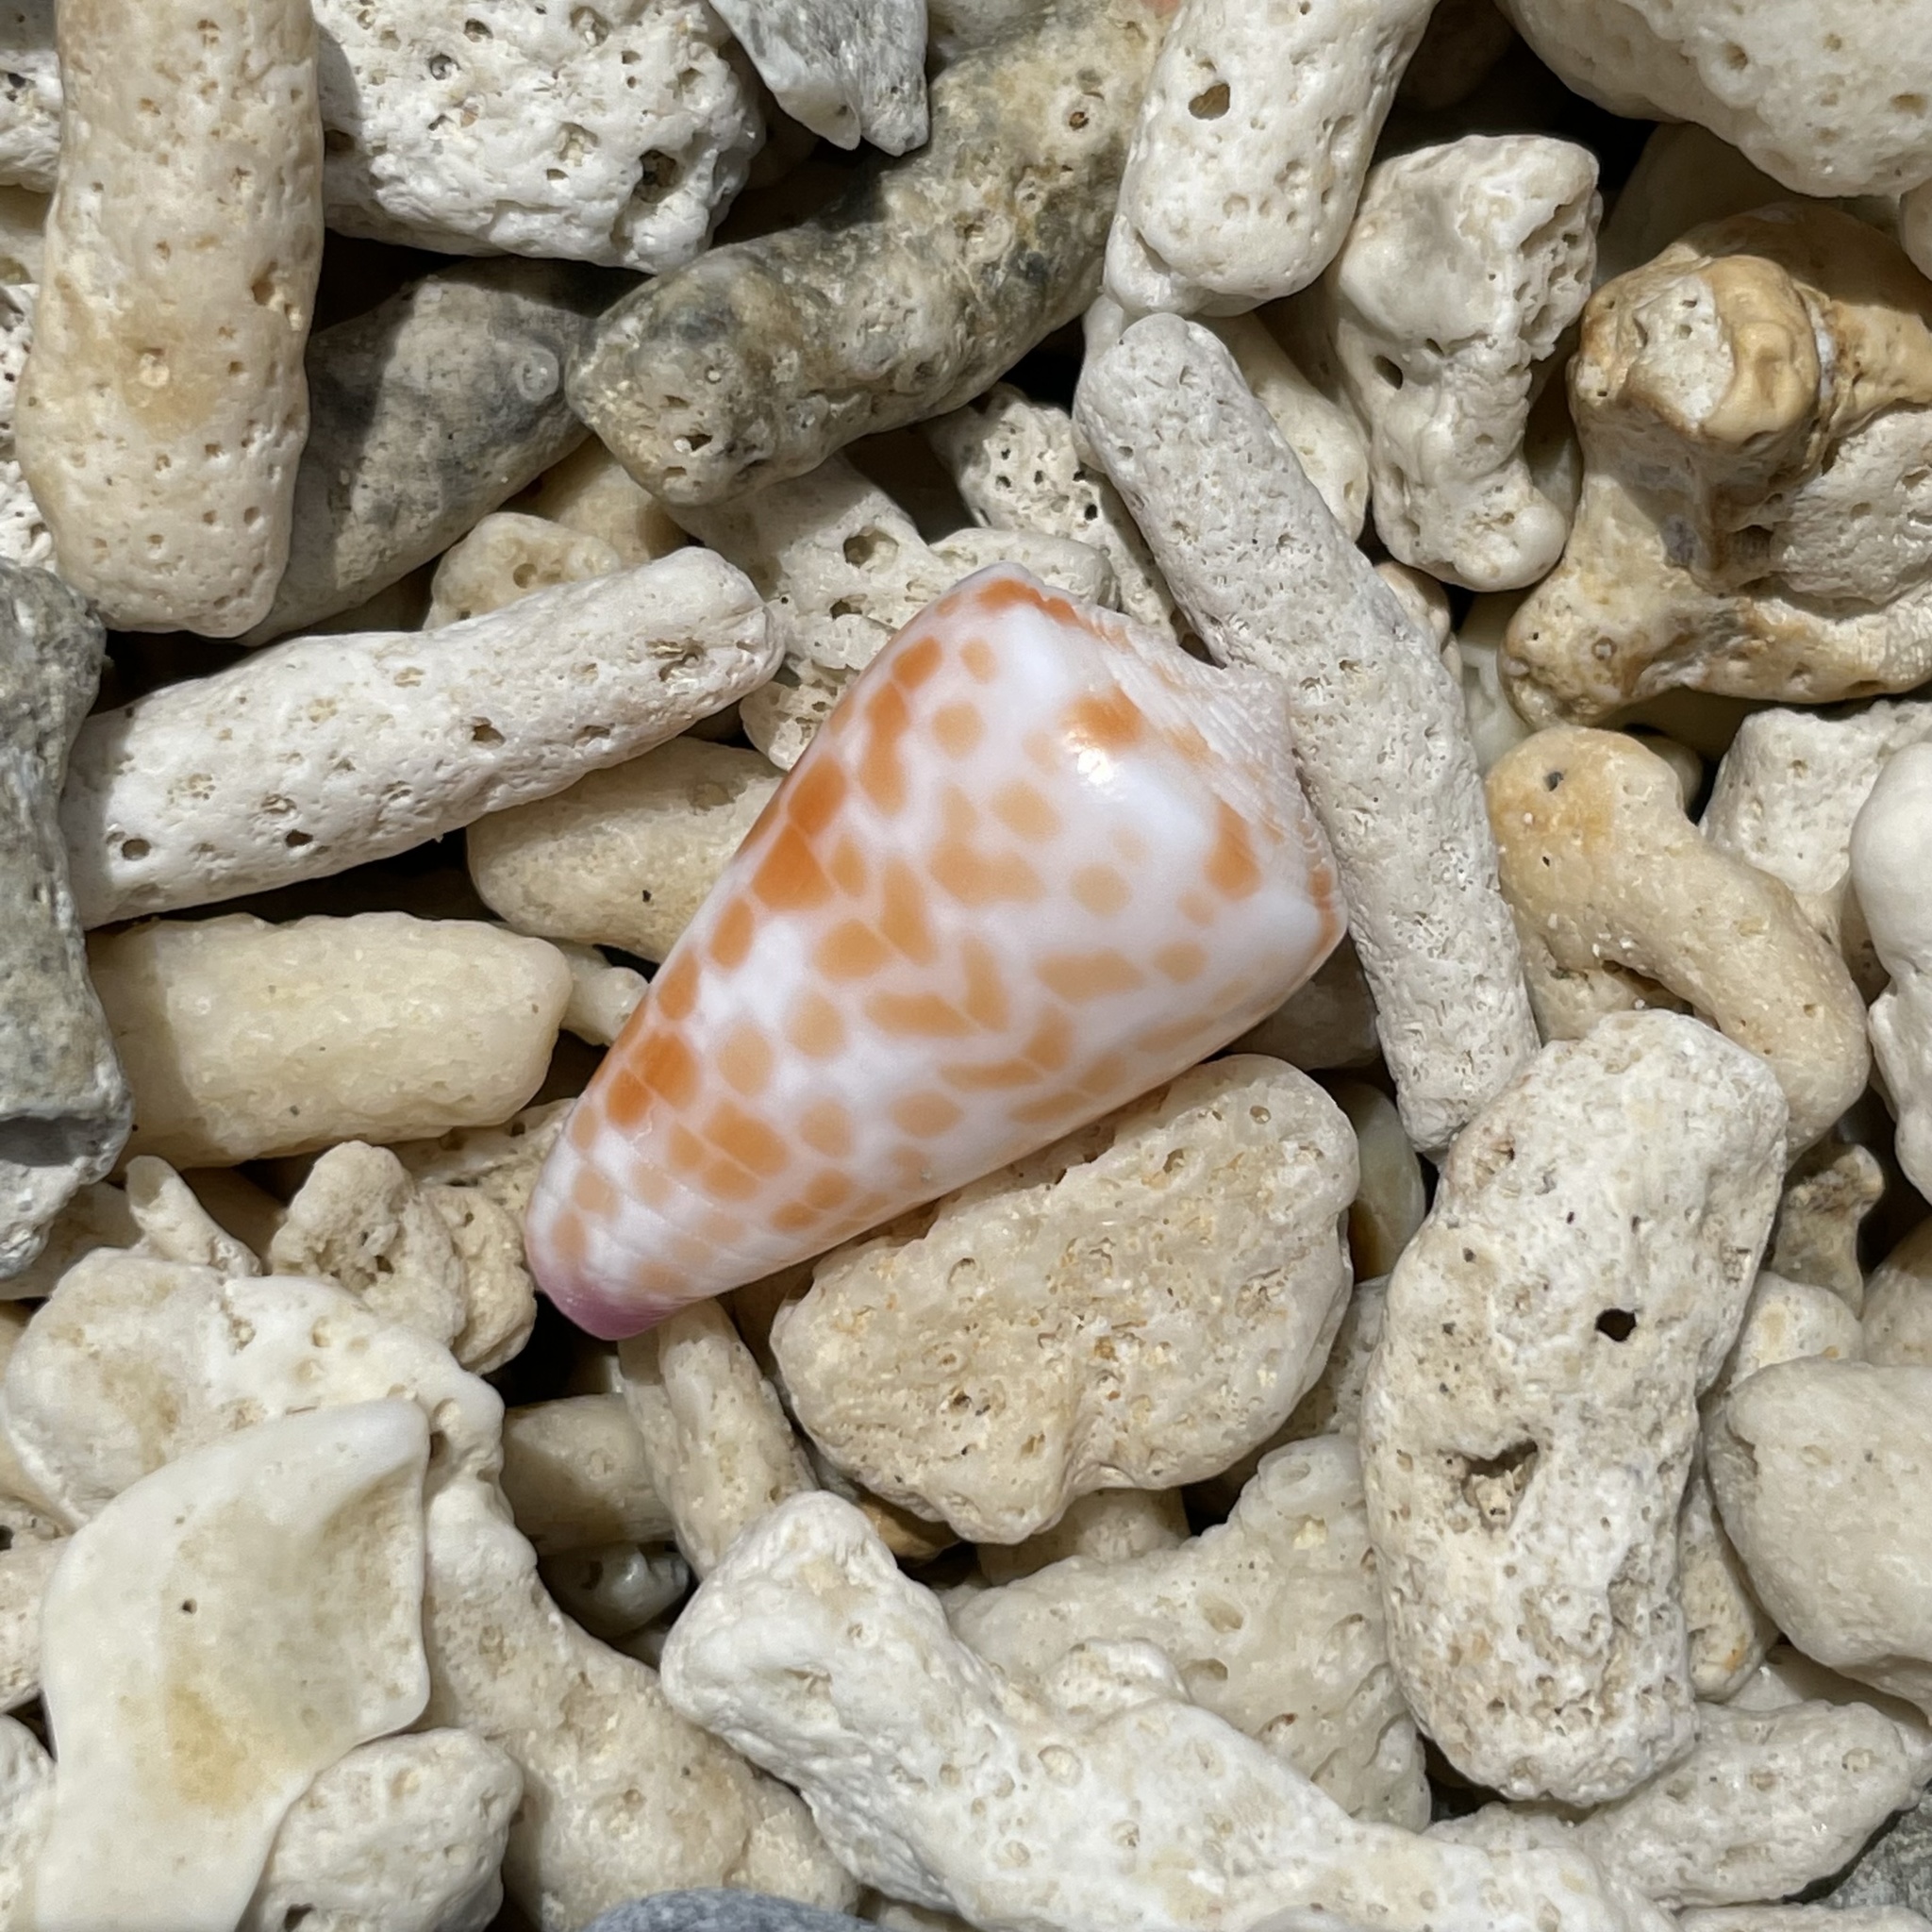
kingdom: Animalia
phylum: Mollusca
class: Gastropoda
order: Neogastropoda
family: Conidae
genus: Conus
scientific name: Conus tessulatus
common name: Tessellate cone
